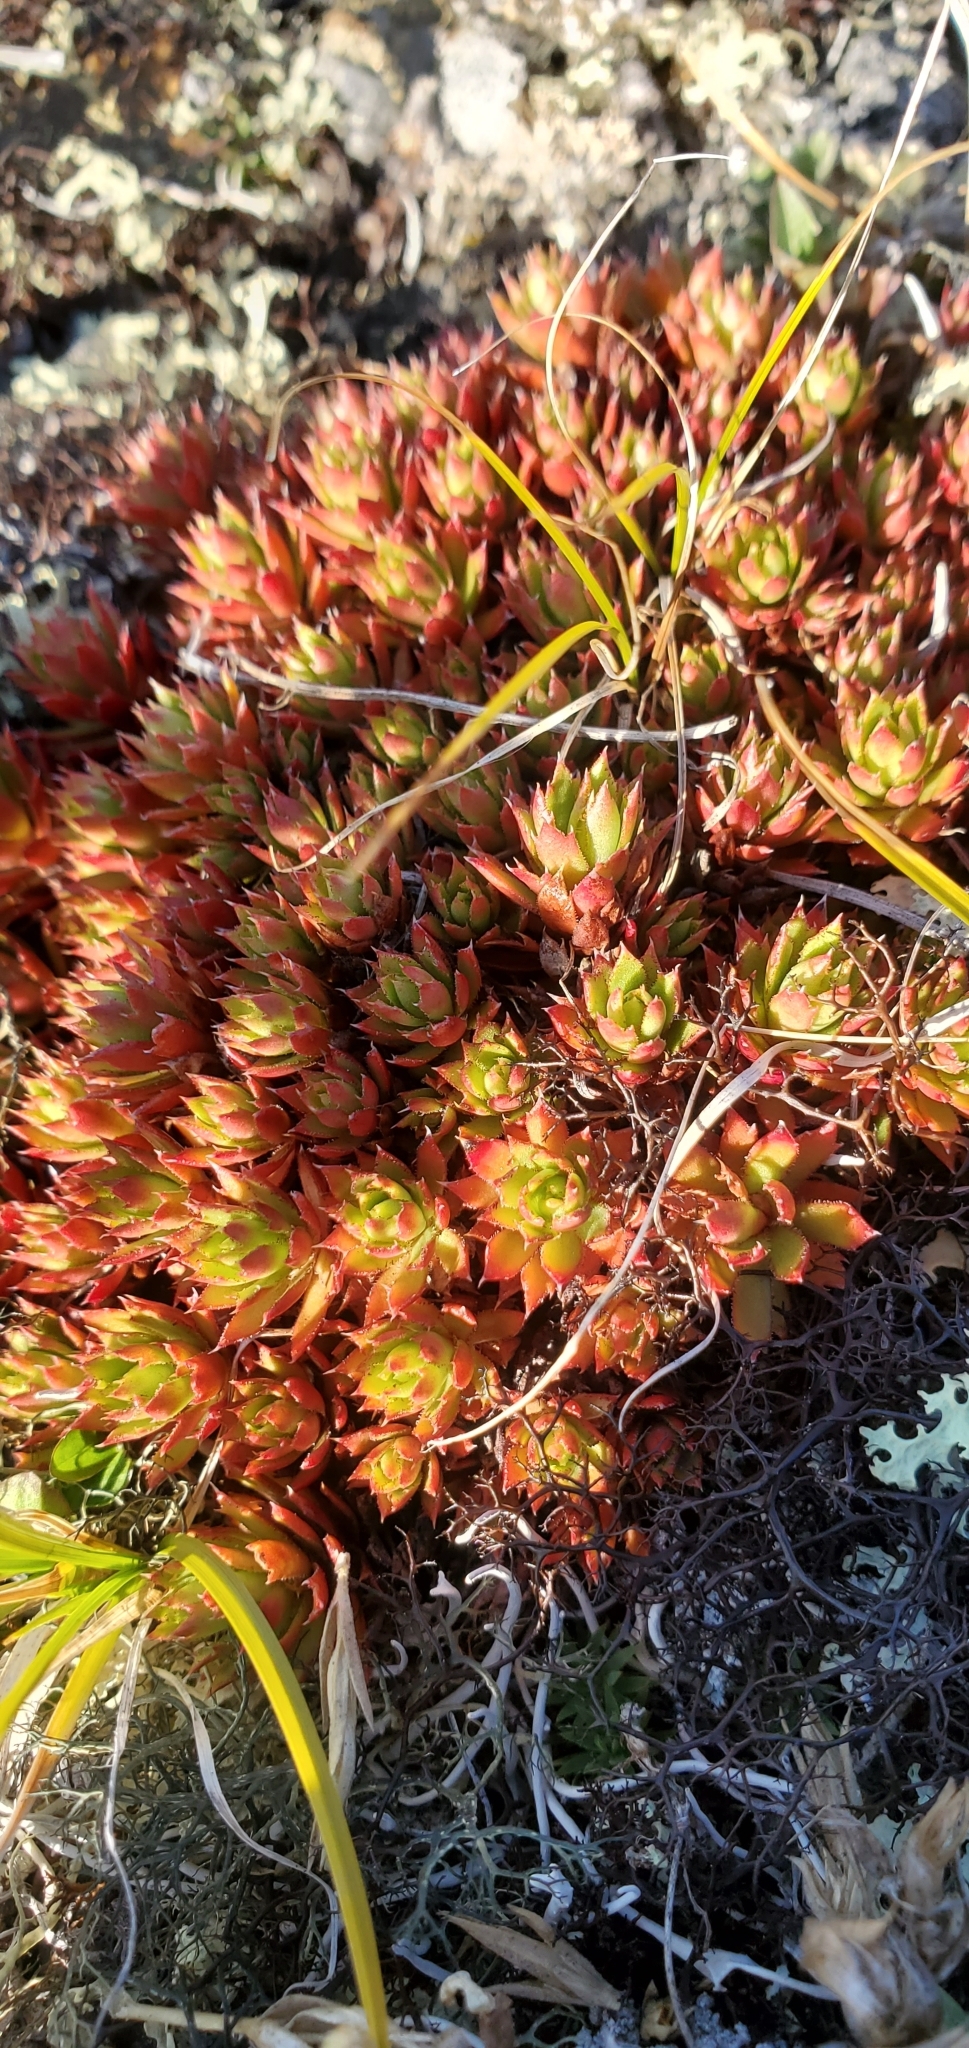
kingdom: Plantae
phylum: Tracheophyta
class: Magnoliopsida
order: Saxifragales
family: Saxifragaceae
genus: Saxifraga
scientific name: Saxifraga tricuspidata
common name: Prickly saxifrage
